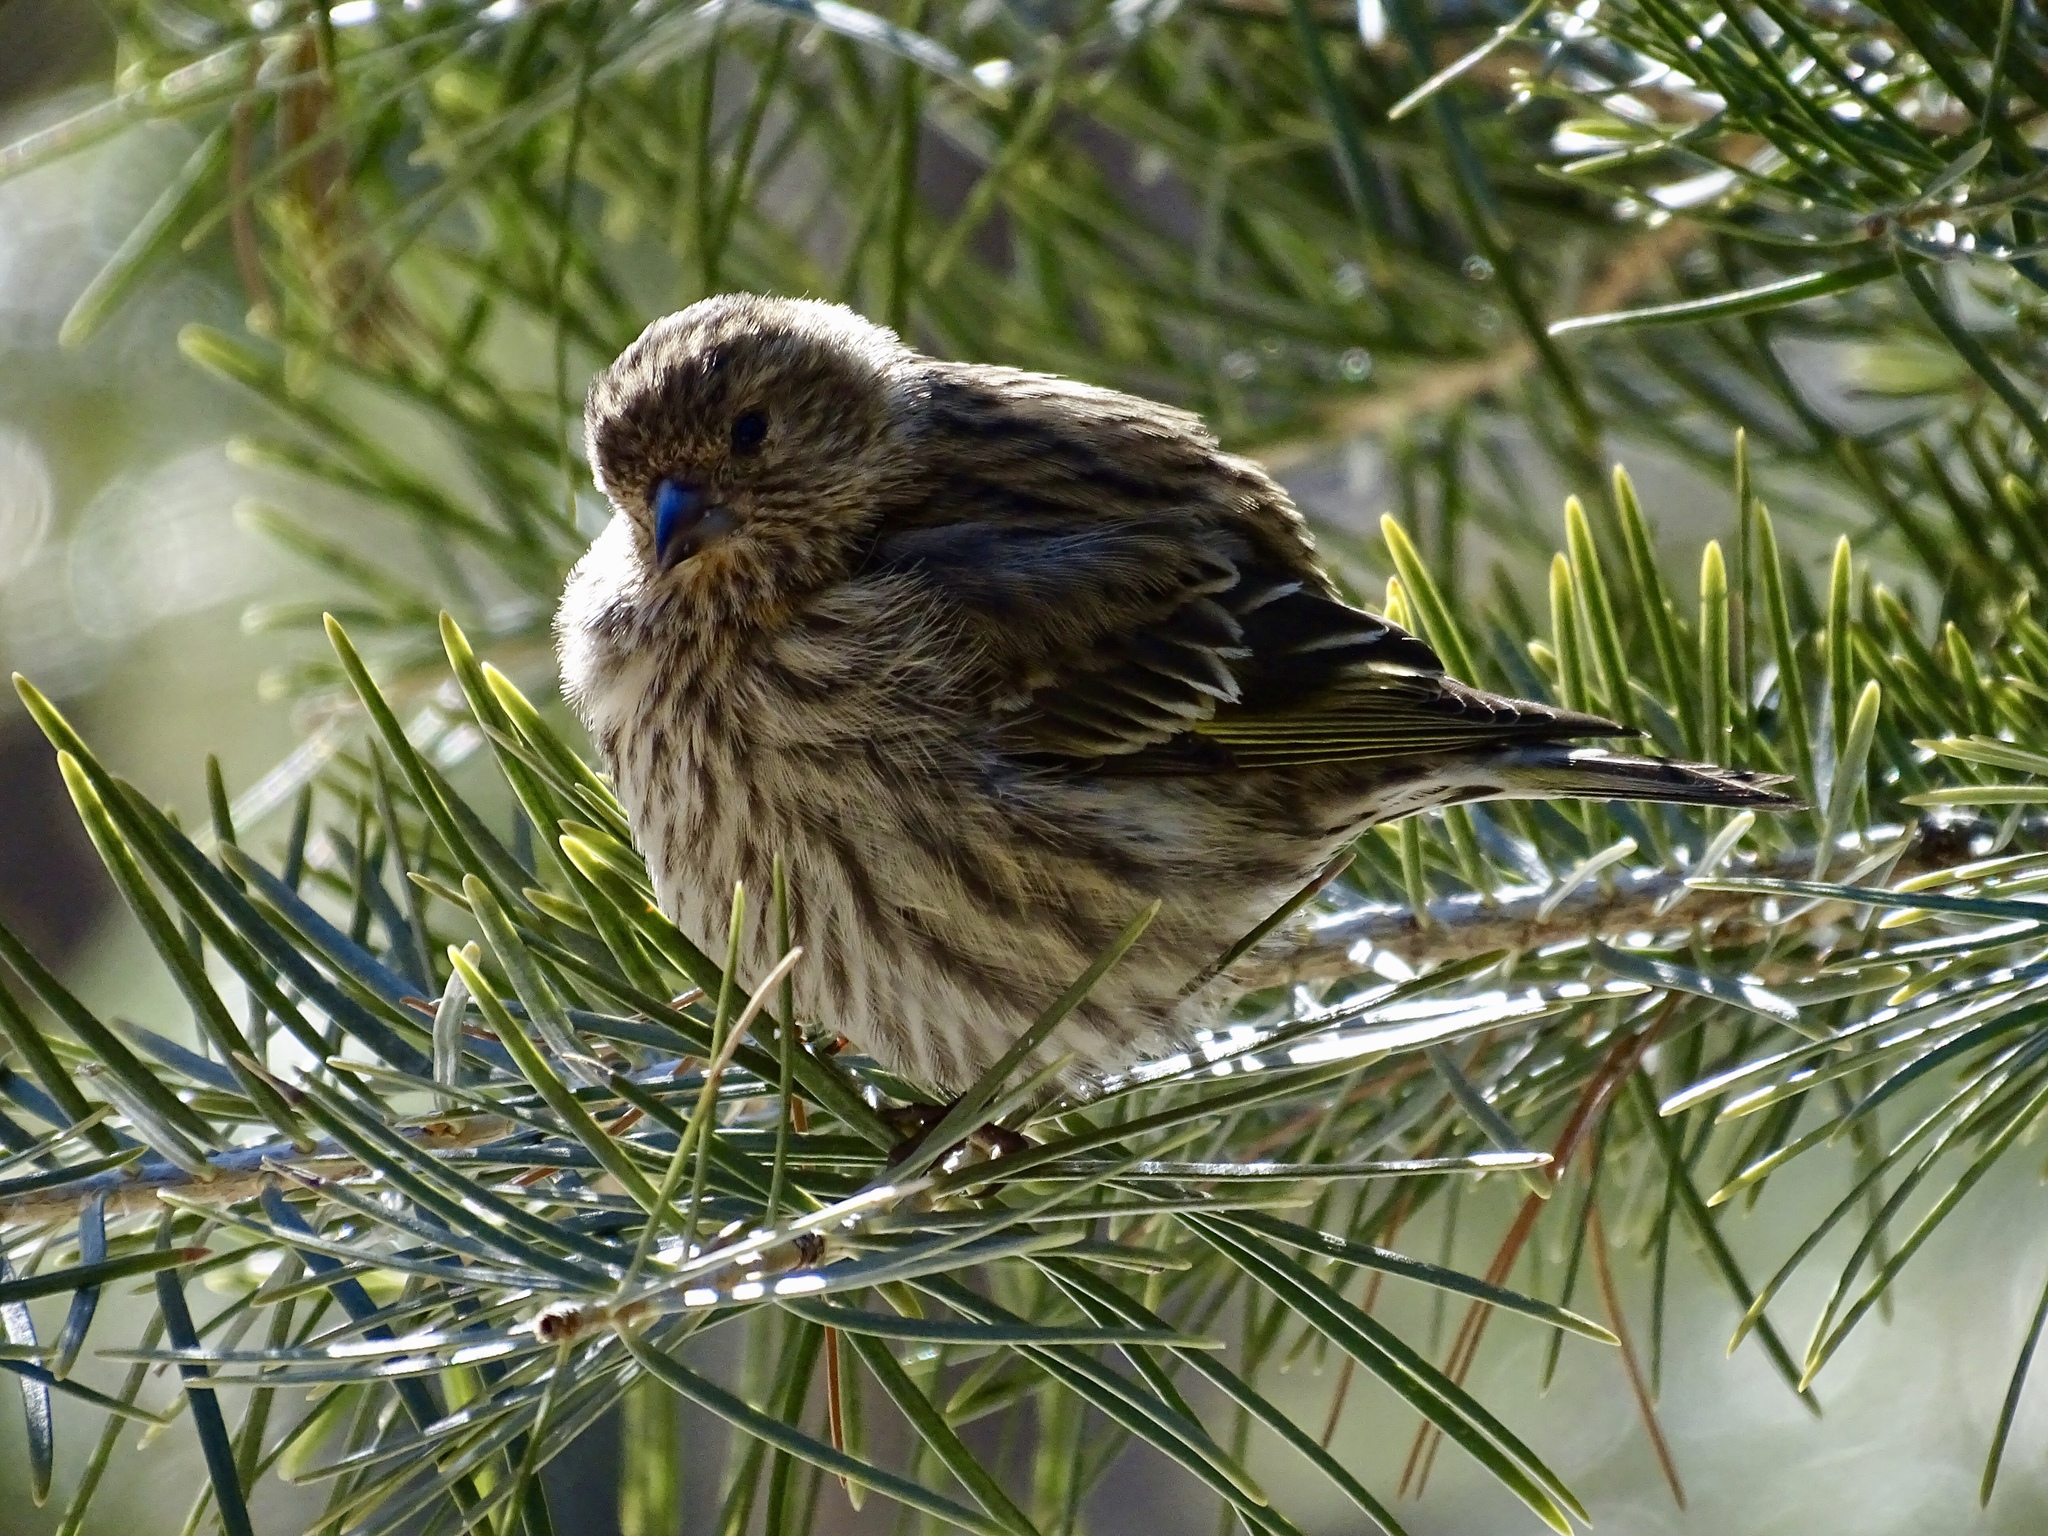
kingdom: Animalia
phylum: Chordata
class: Aves
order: Passeriformes
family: Fringillidae
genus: Spinus
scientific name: Spinus pinus
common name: Pine siskin
